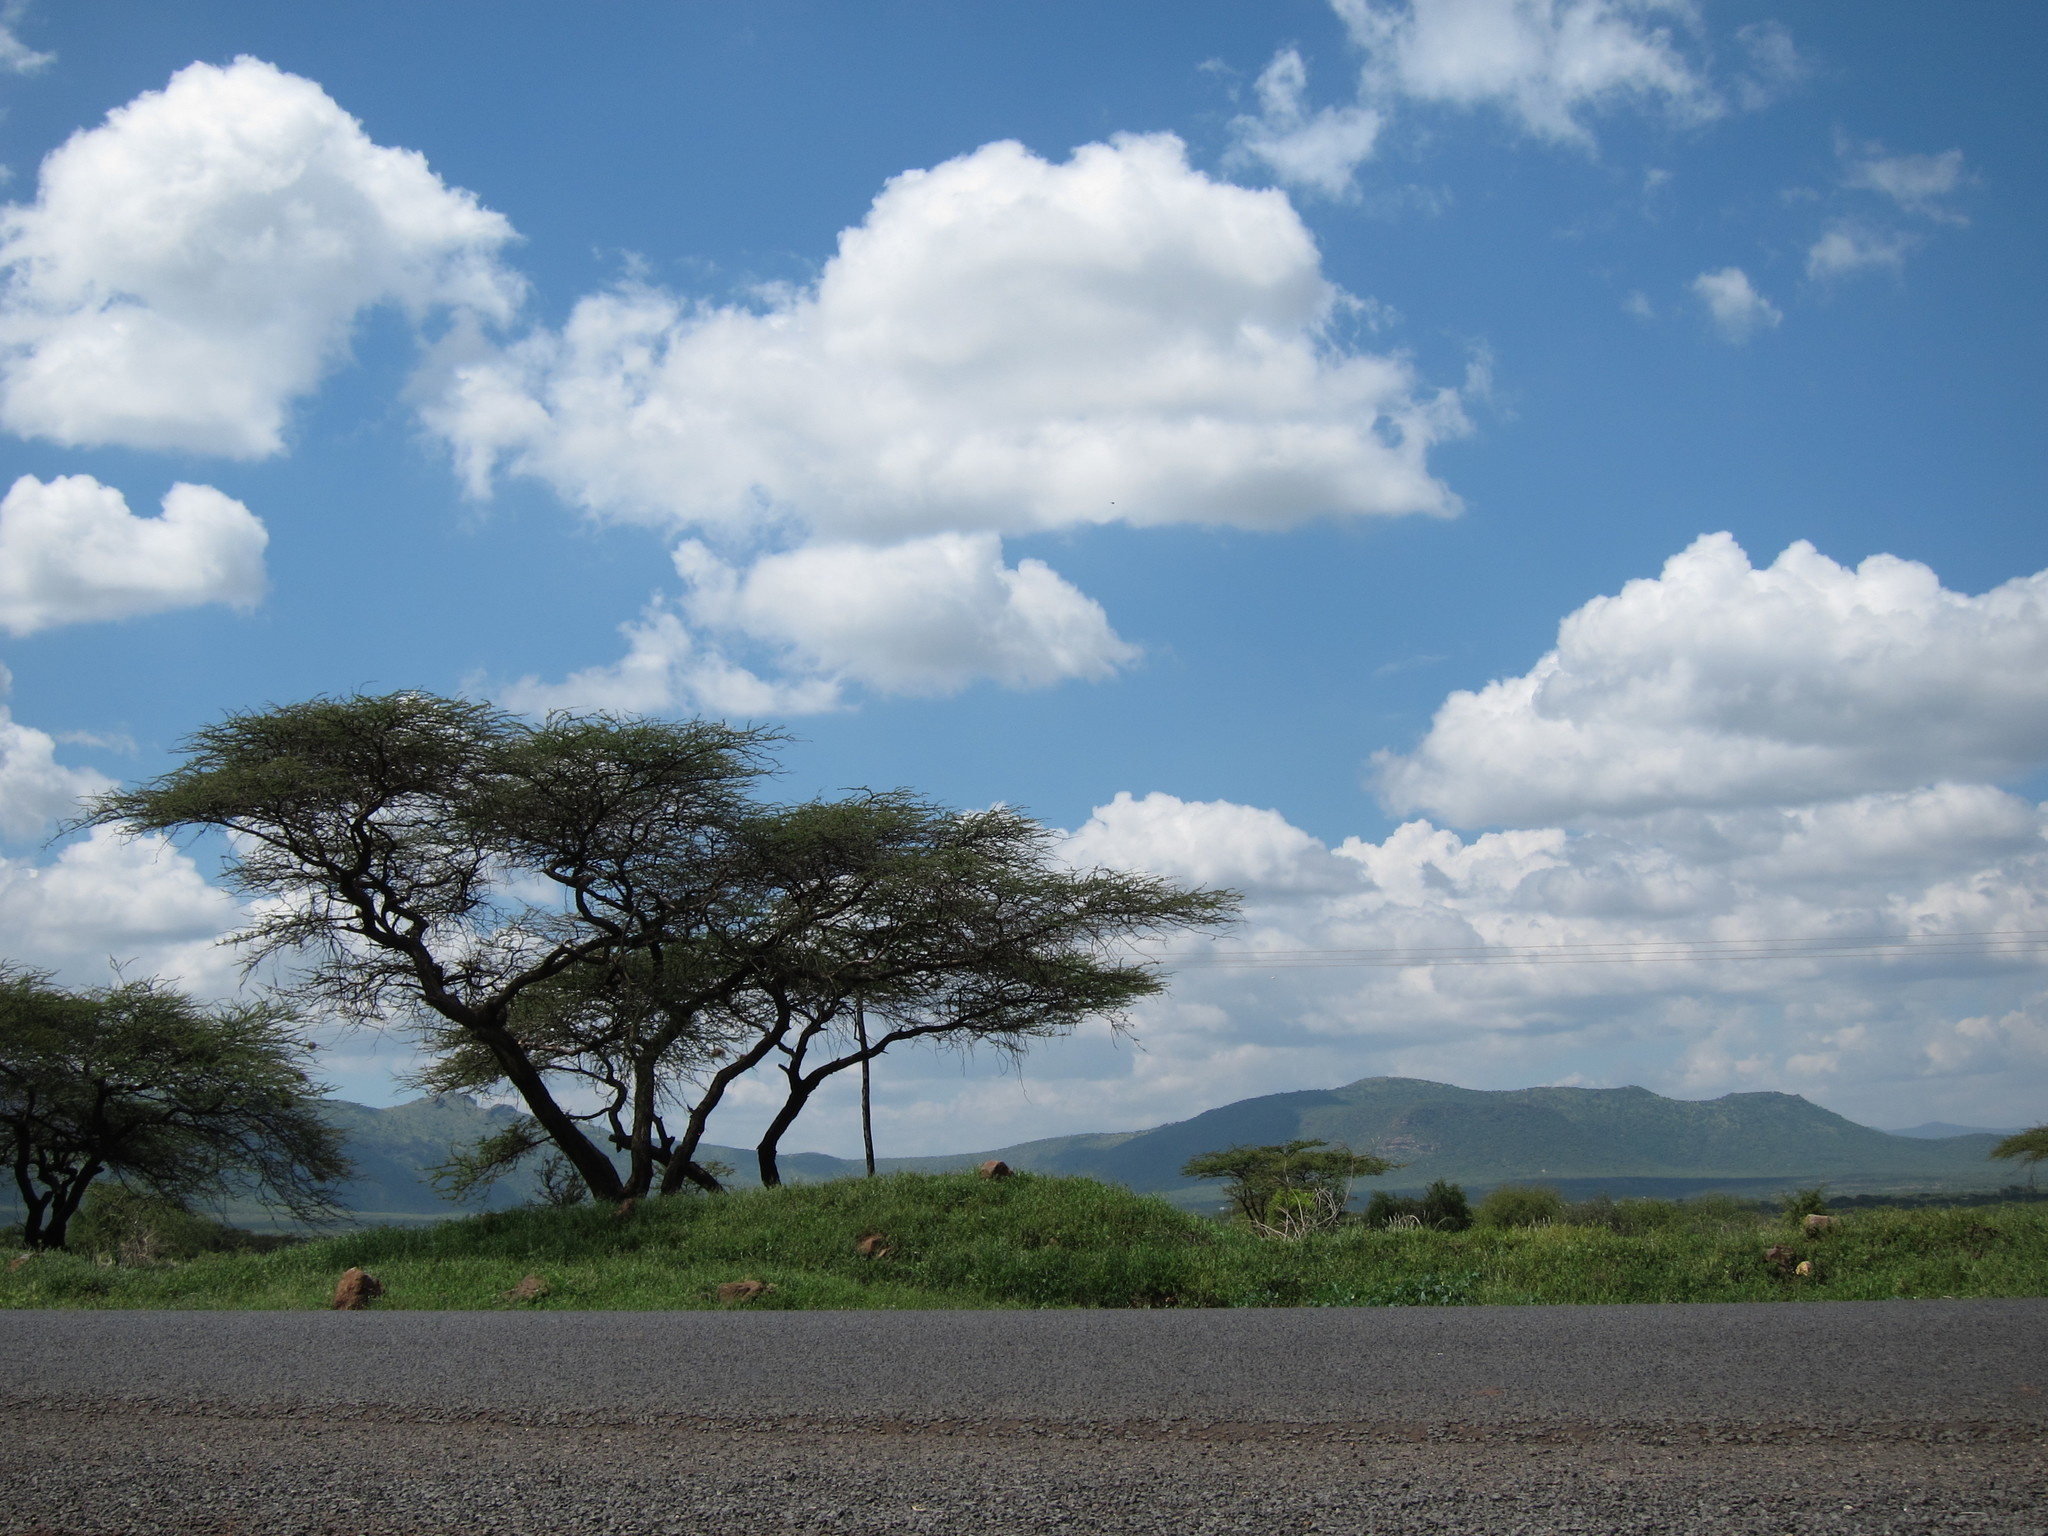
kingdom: Plantae
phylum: Tracheophyta
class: Magnoliopsida
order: Fabales
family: Fabaceae
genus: Vachellia
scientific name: Vachellia tortilis
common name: Umbrella thorn acacia
